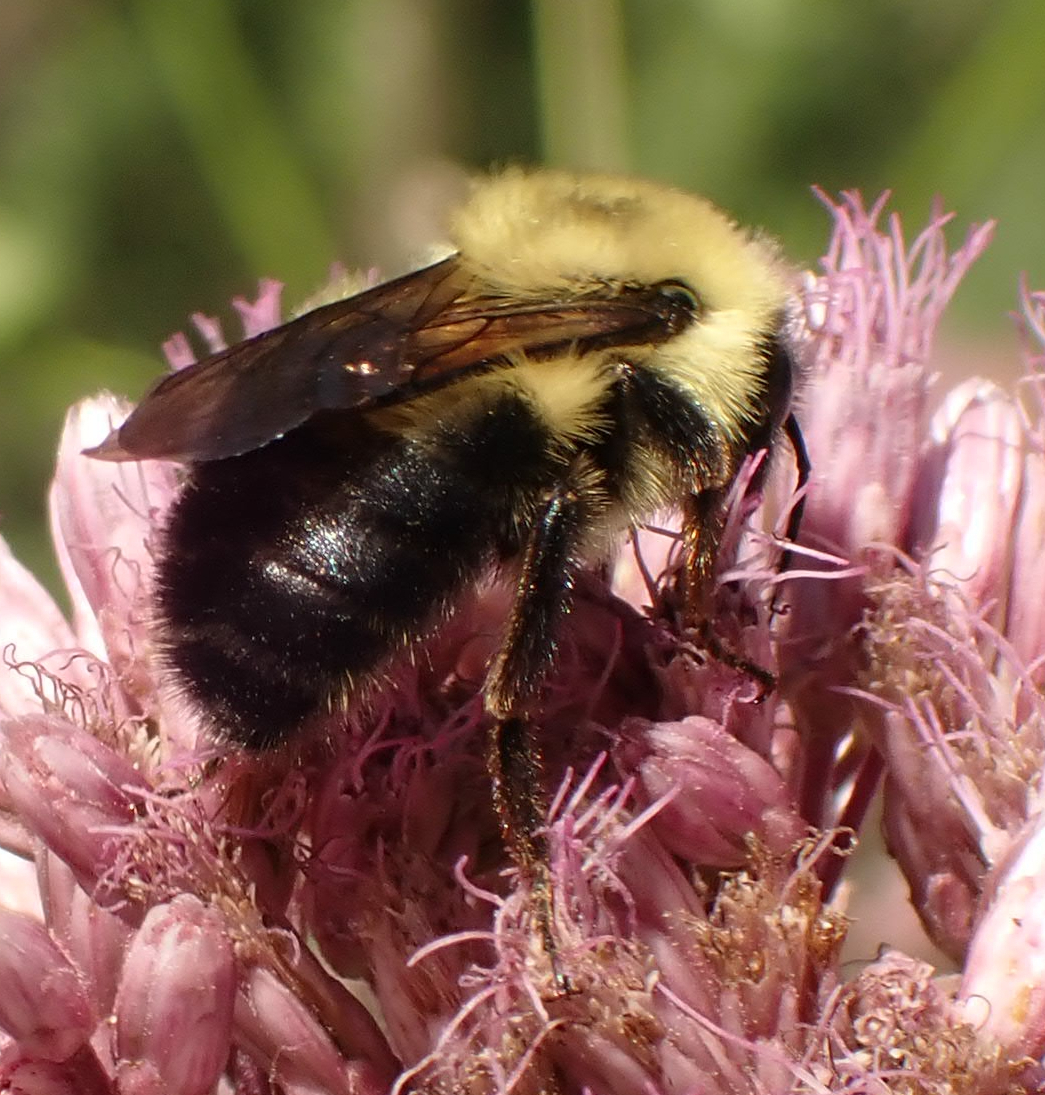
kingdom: Animalia
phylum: Arthropoda
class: Insecta
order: Hymenoptera
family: Apidae
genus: Bombus
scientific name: Bombus bimaculatus
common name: Two-spotted bumble bee
